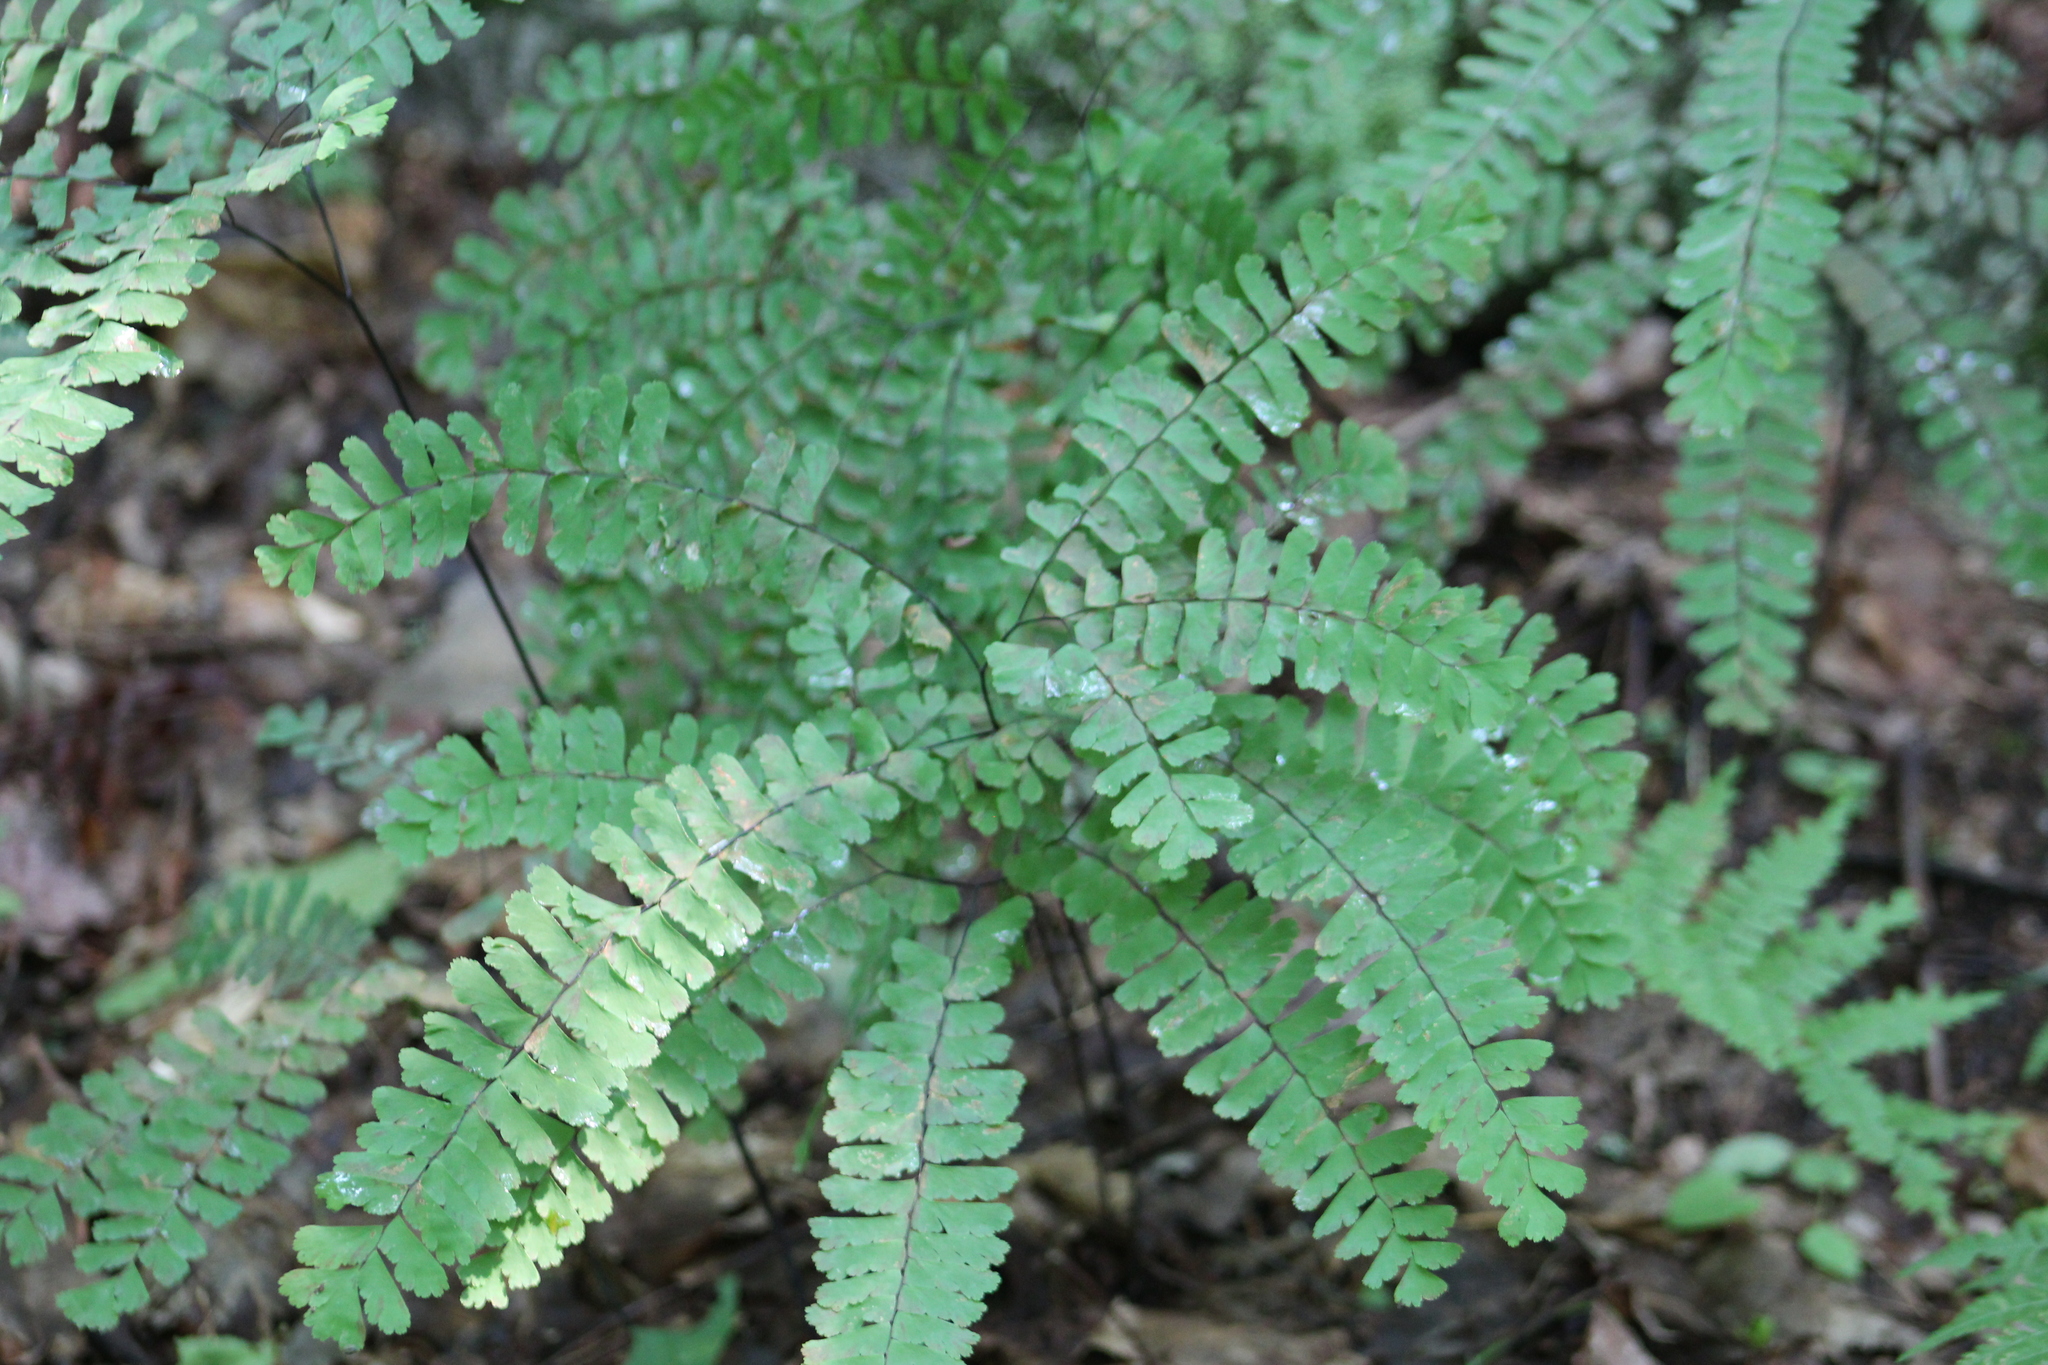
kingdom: Plantae
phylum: Tracheophyta
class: Polypodiopsida
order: Polypodiales
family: Pteridaceae
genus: Adiantum
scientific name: Adiantum pedatum
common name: Five-finger fern
